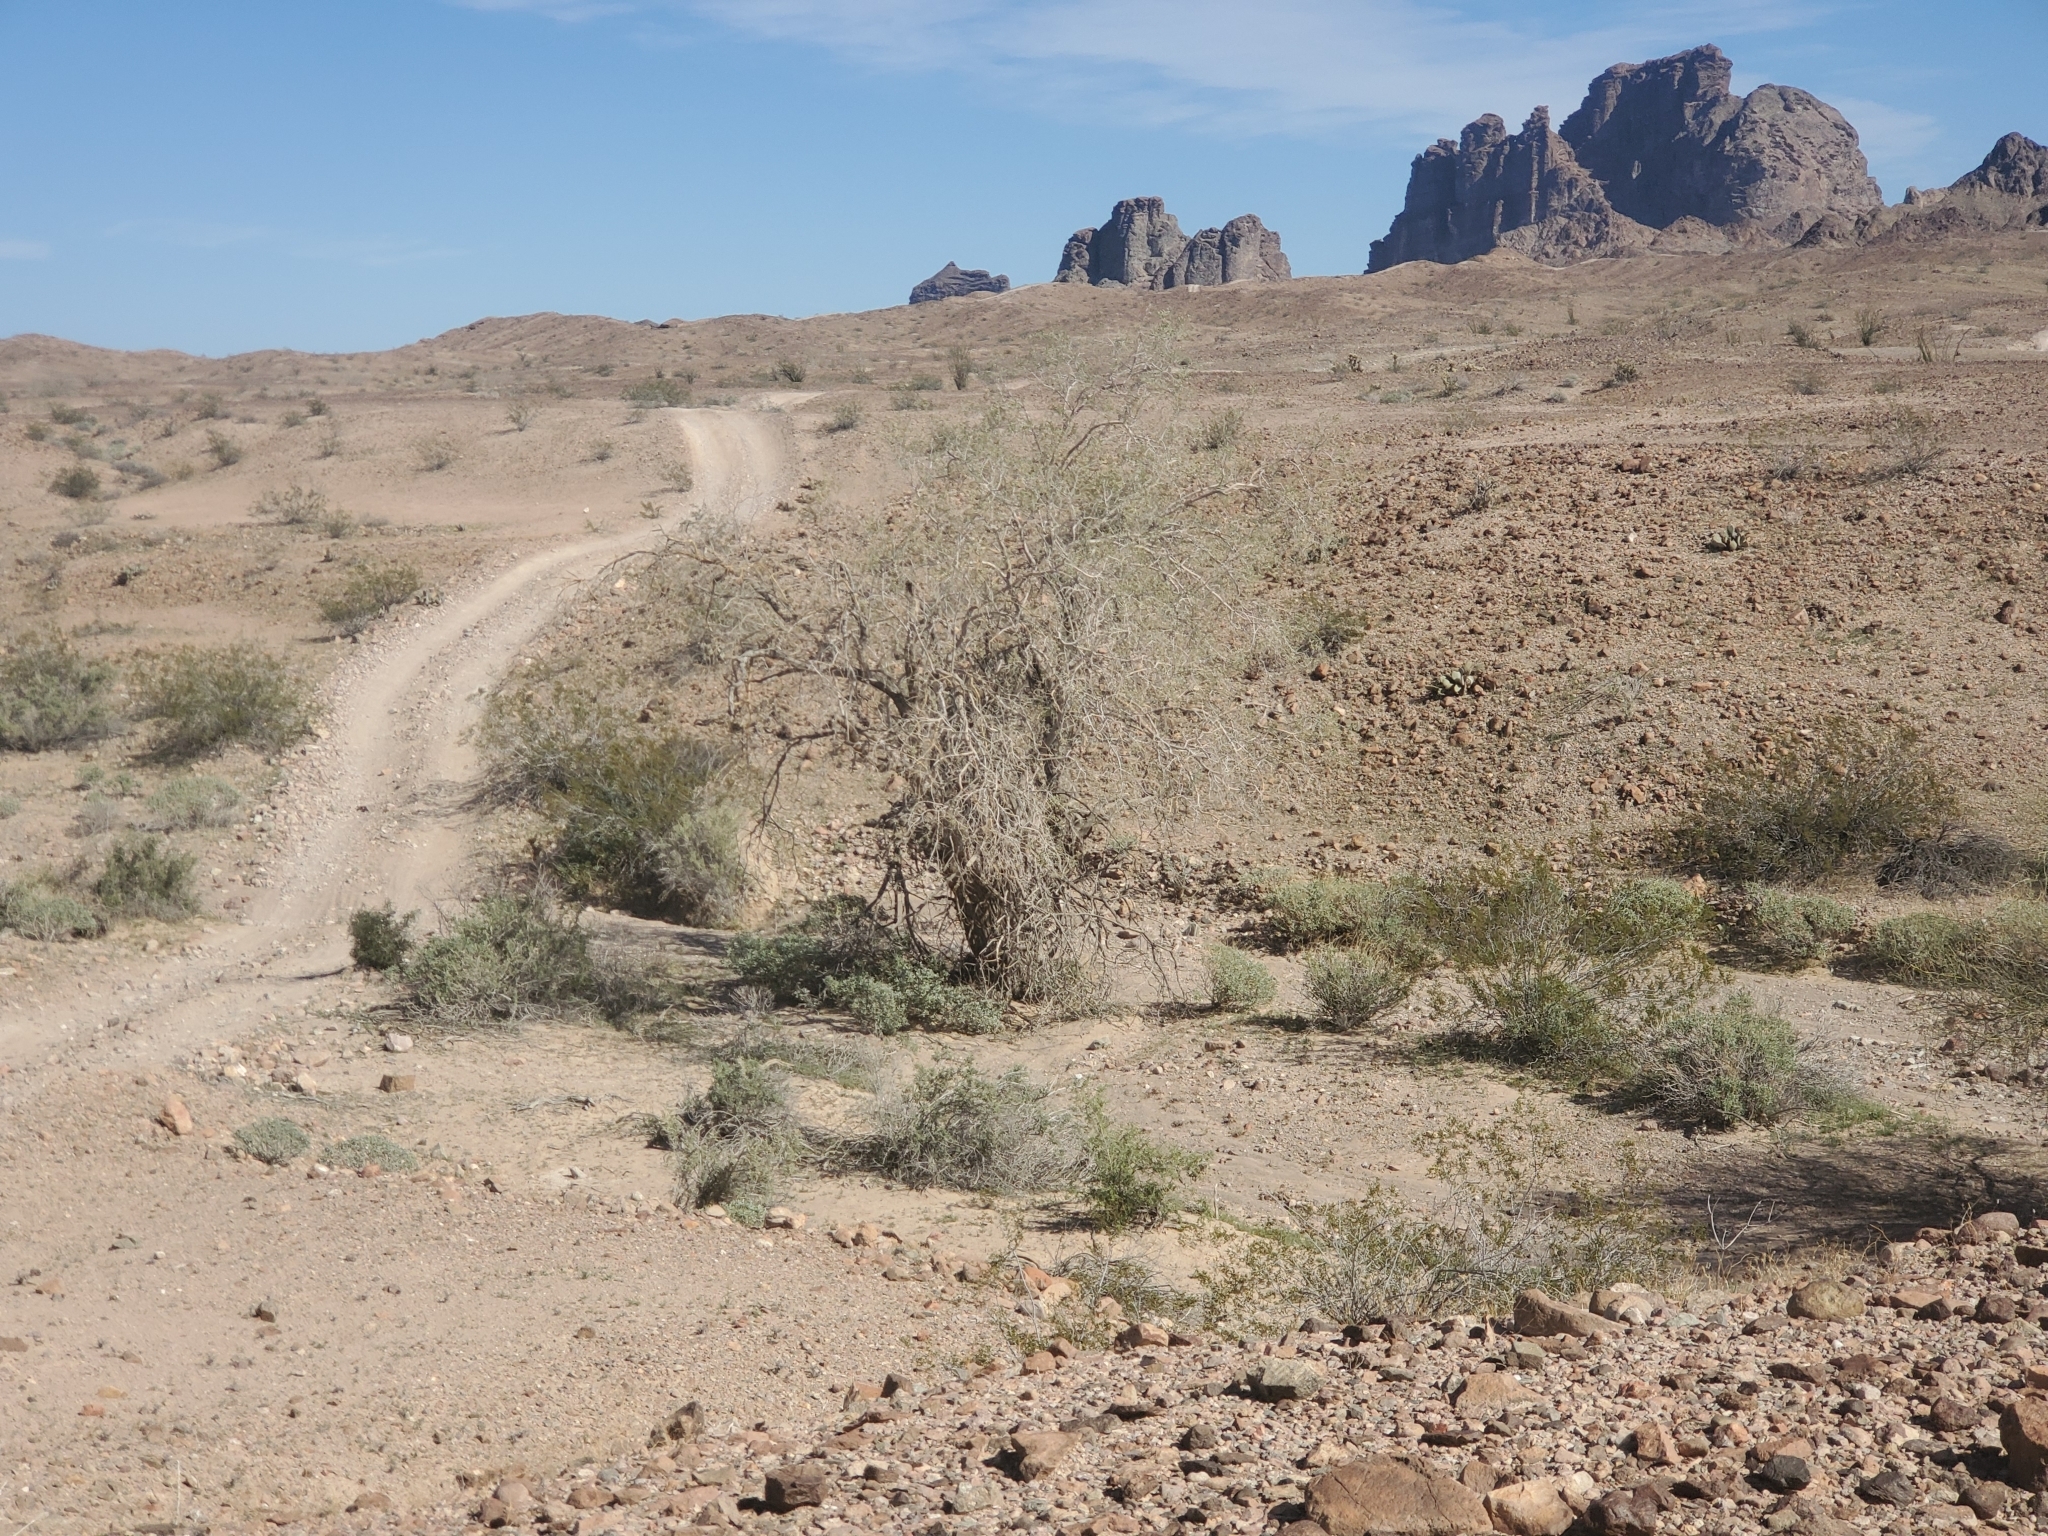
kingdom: Plantae
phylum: Tracheophyta
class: Magnoliopsida
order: Fabales
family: Fabaceae
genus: Olneya
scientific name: Olneya tesota
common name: Desert ironwood
